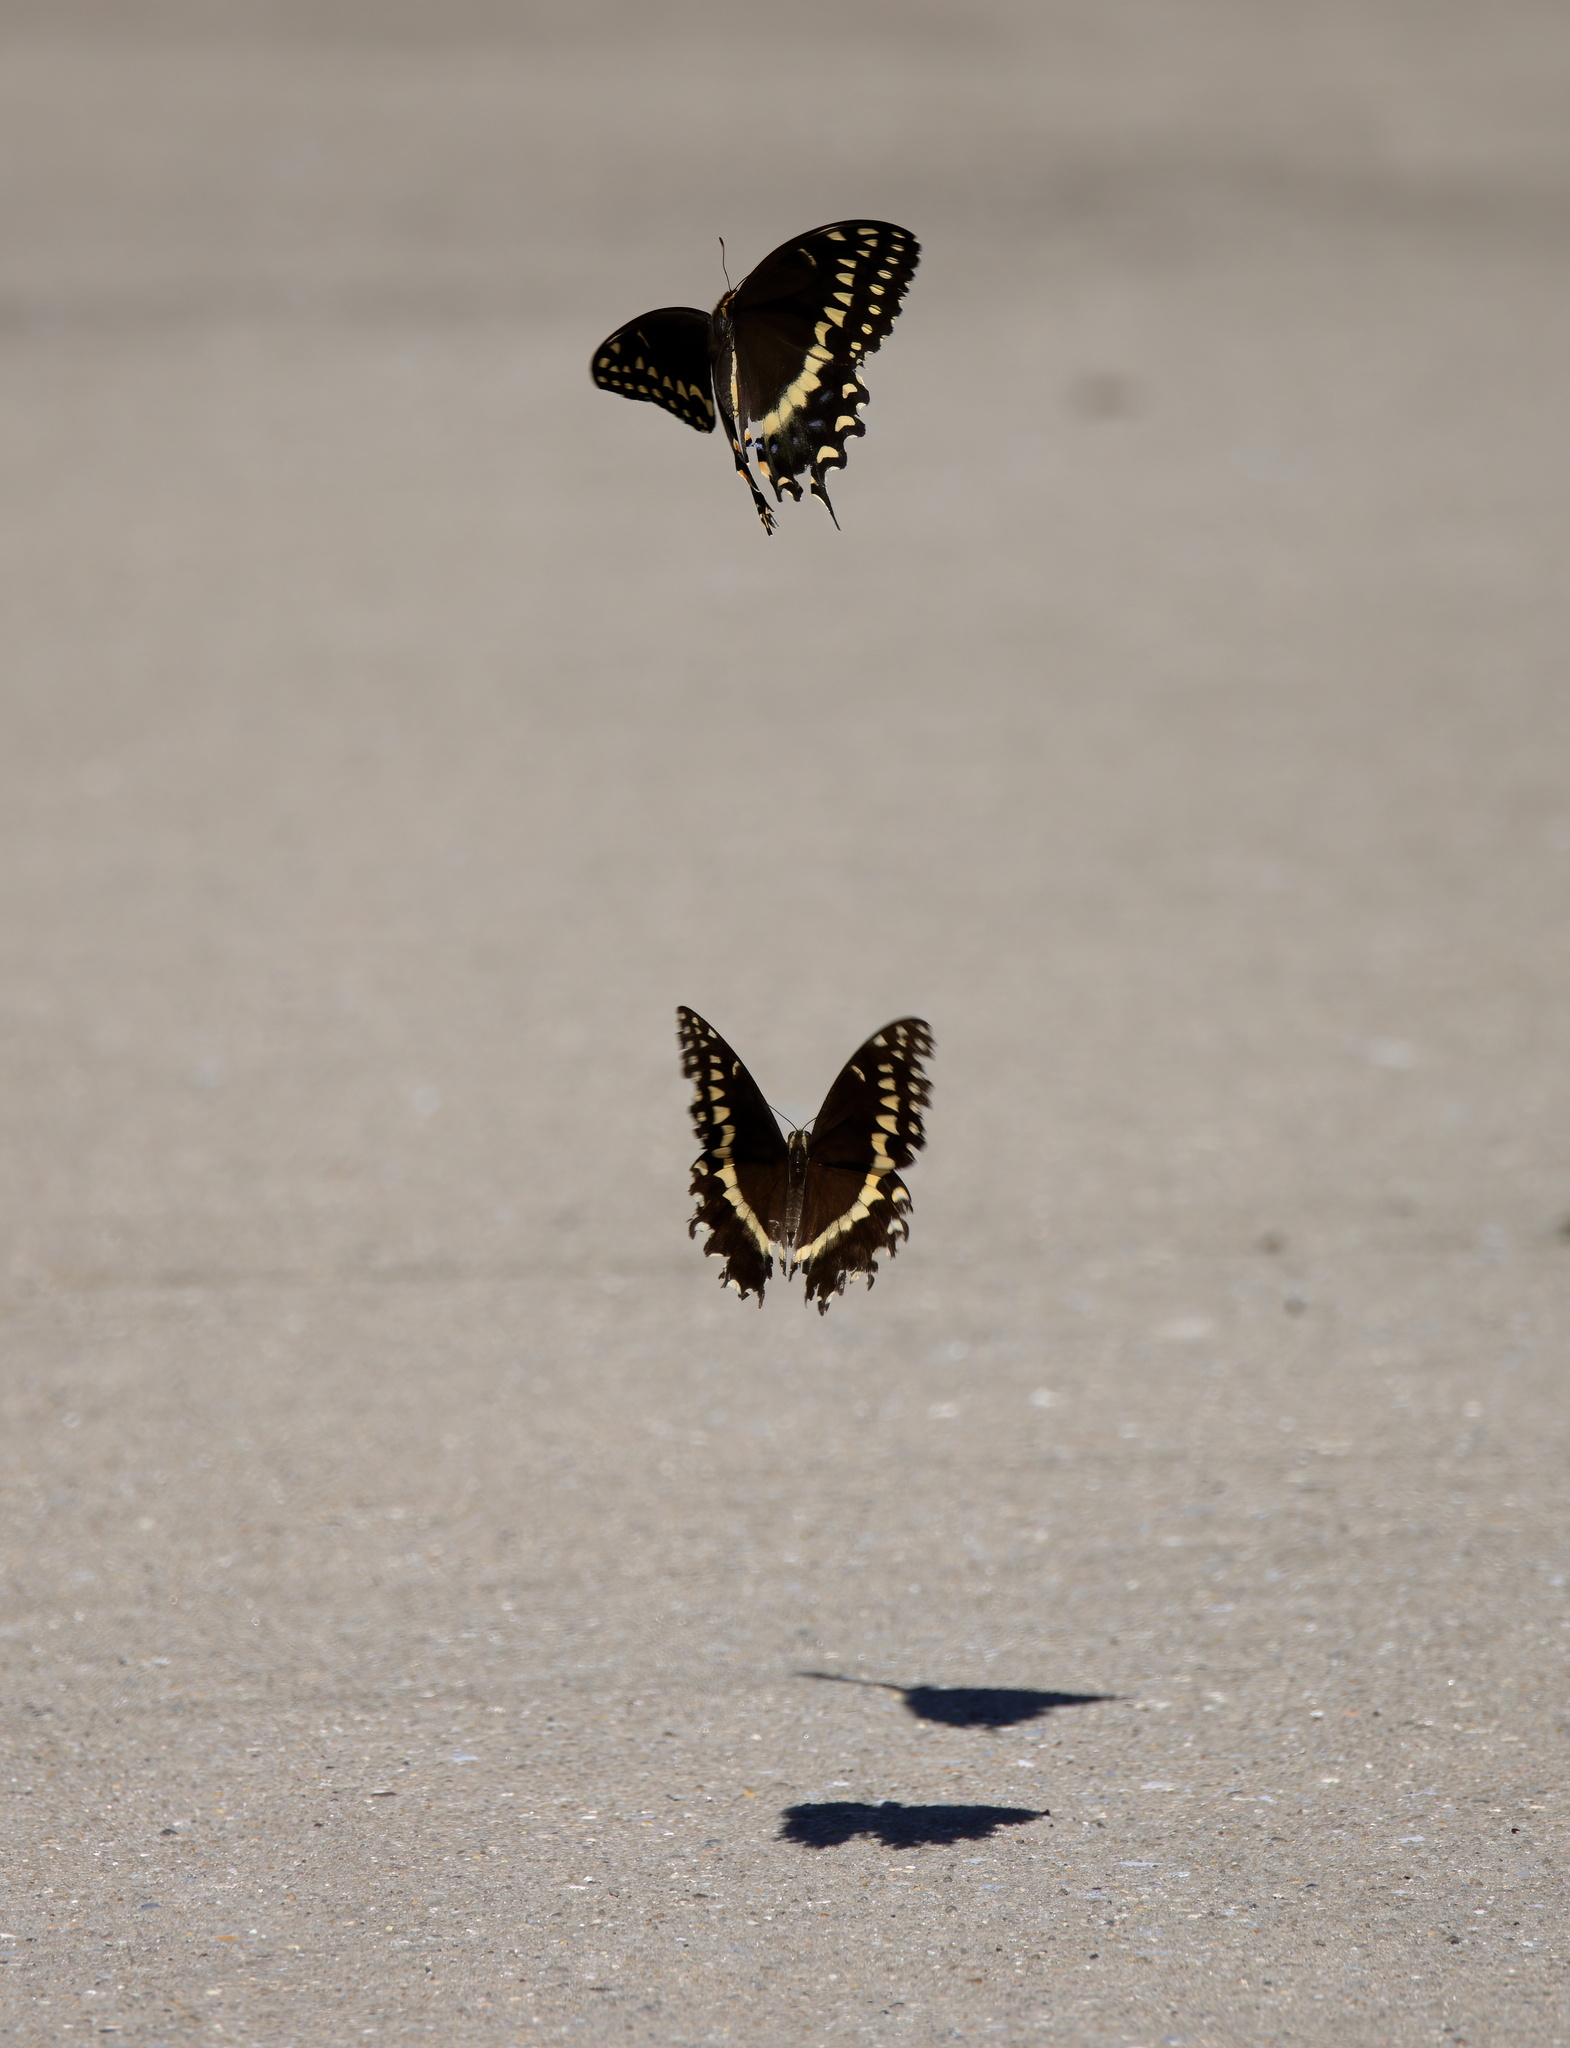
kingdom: Animalia
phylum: Arthropoda
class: Insecta
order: Lepidoptera
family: Papilionidae
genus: Papilio
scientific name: Papilio palamedes
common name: Palamedes swallowtail
